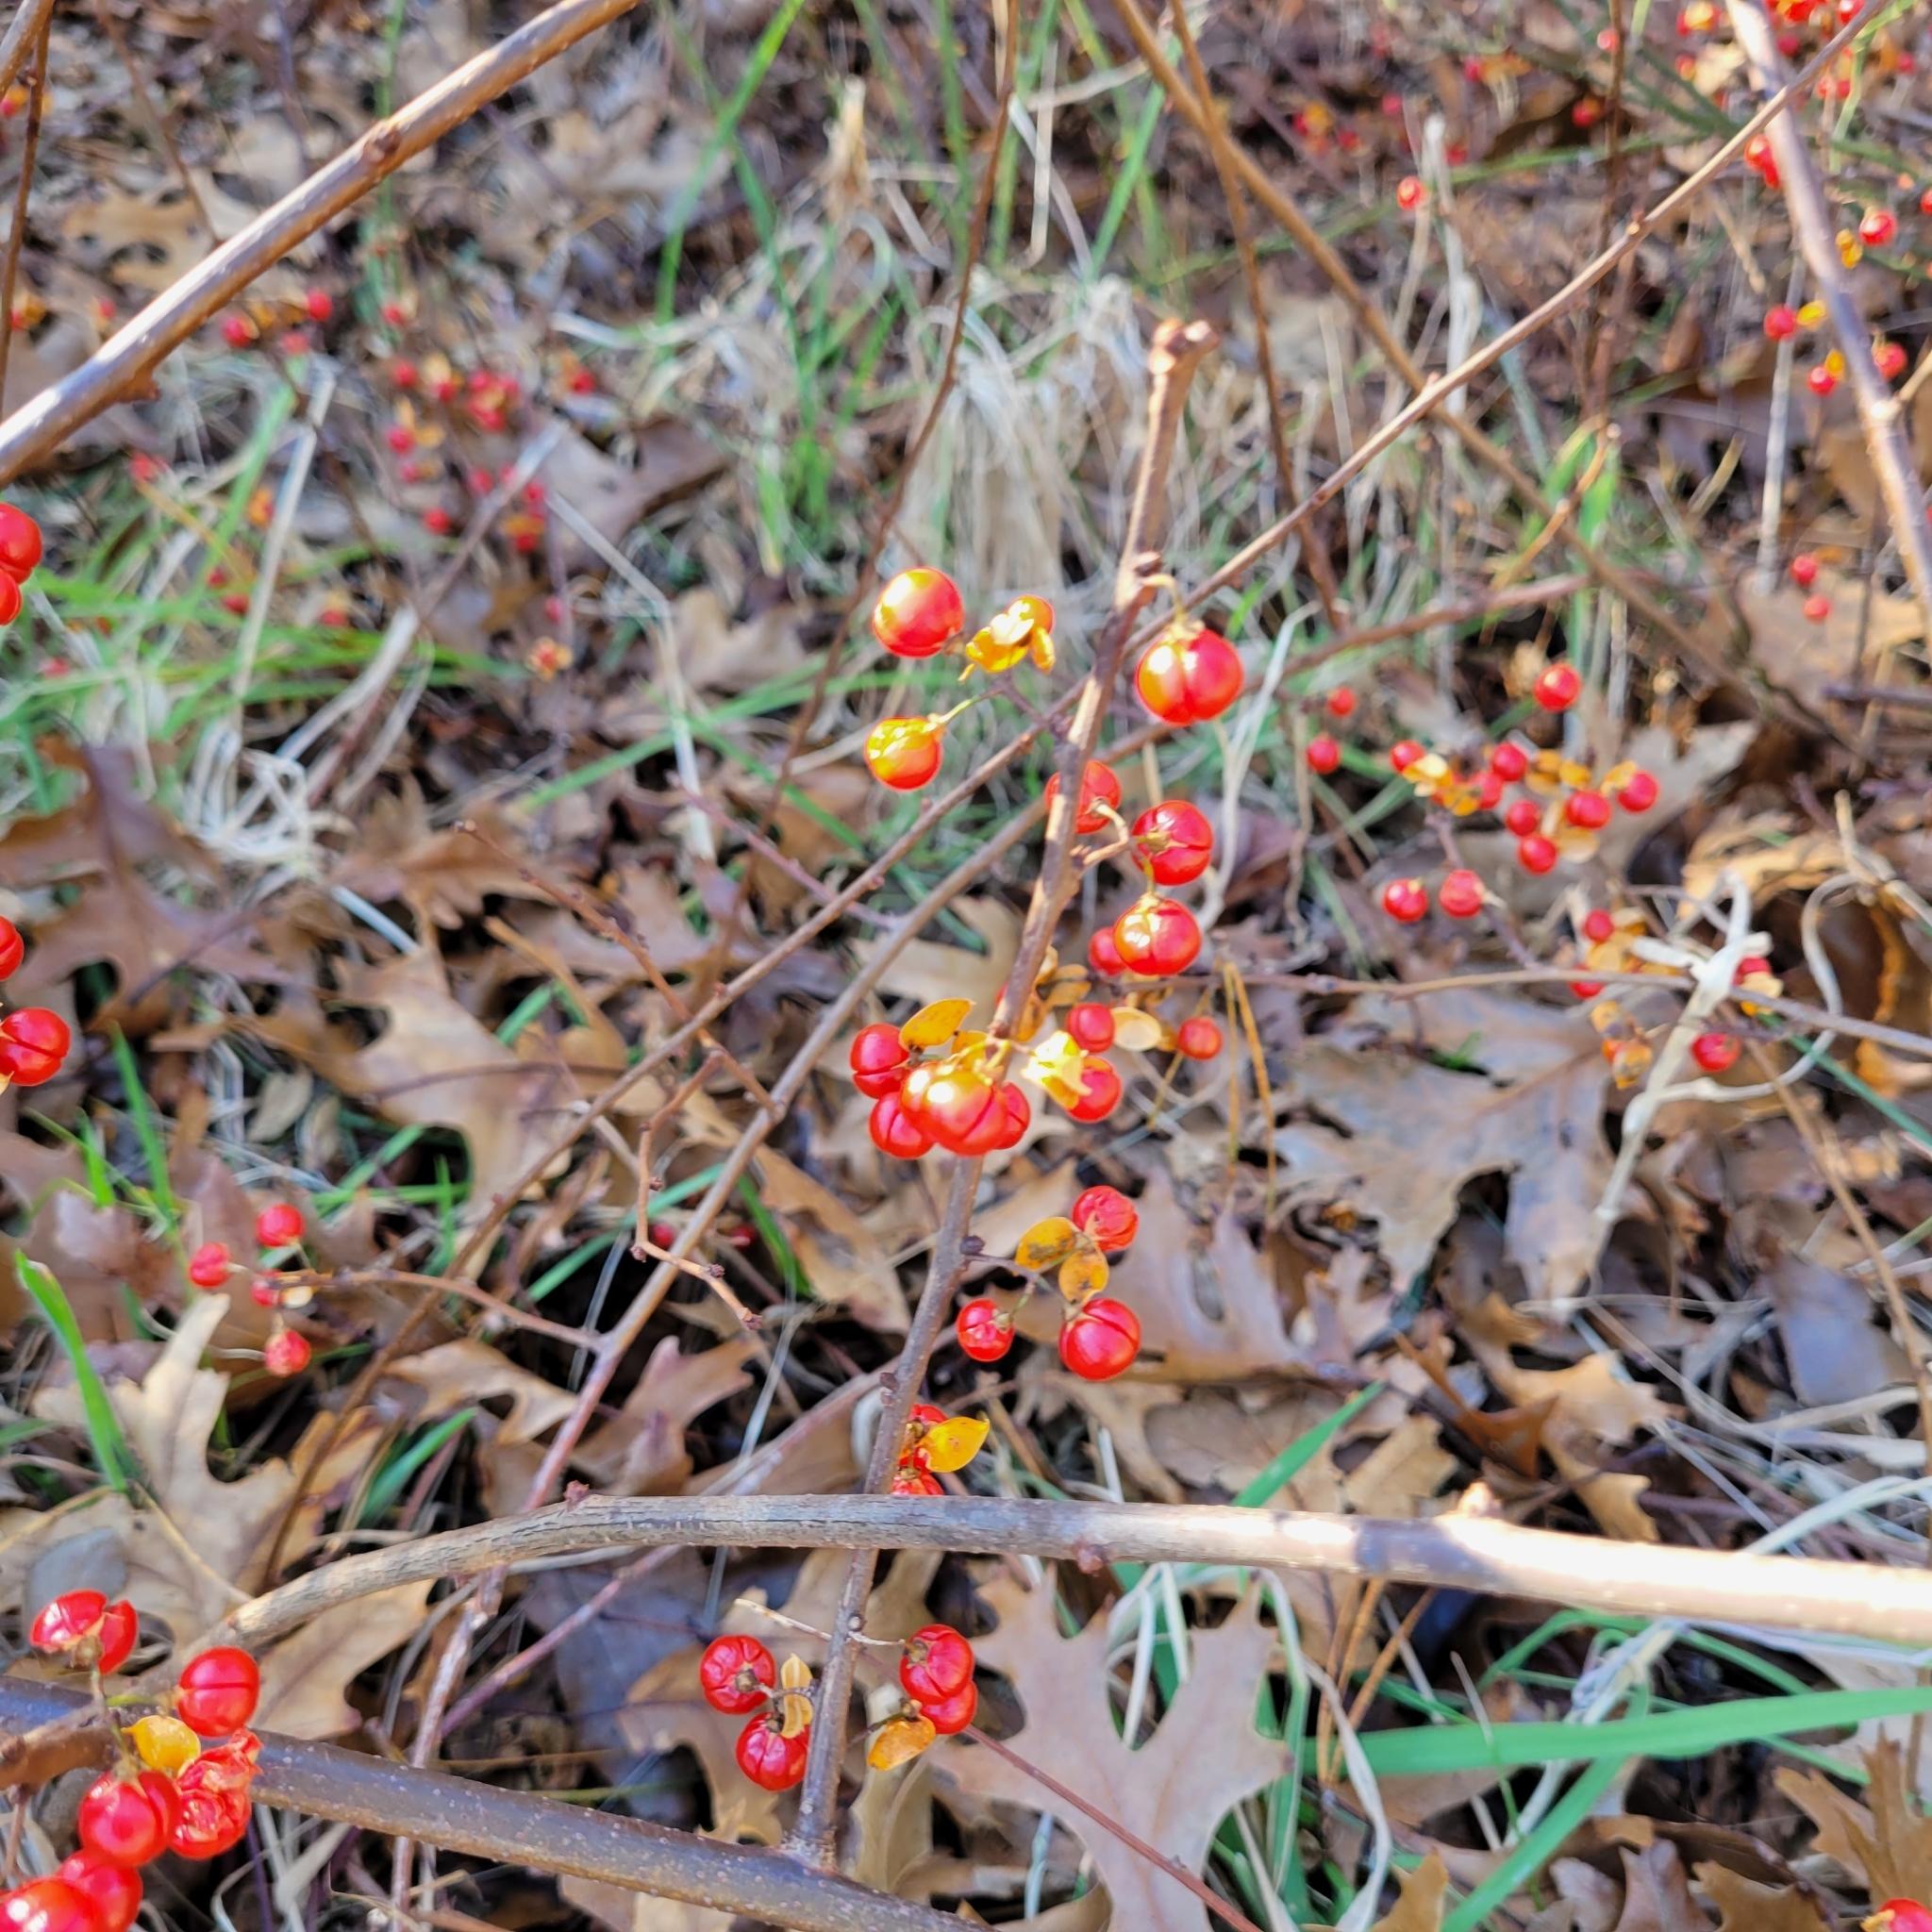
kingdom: Plantae
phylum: Tracheophyta
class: Magnoliopsida
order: Celastrales
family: Celastraceae
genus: Celastrus
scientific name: Celastrus orbiculatus
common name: Oriental bittersweet
